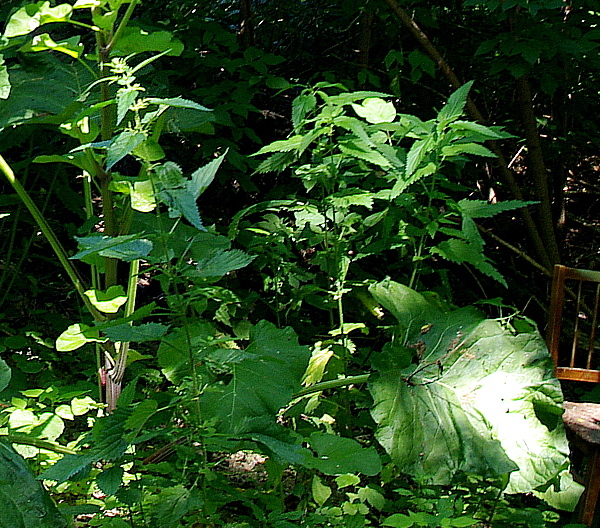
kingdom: Plantae
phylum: Tracheophyta
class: Magnoliopsida
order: Rosales
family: Urticaceae
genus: Urtica
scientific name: Urtica dioica
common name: Common nettle
